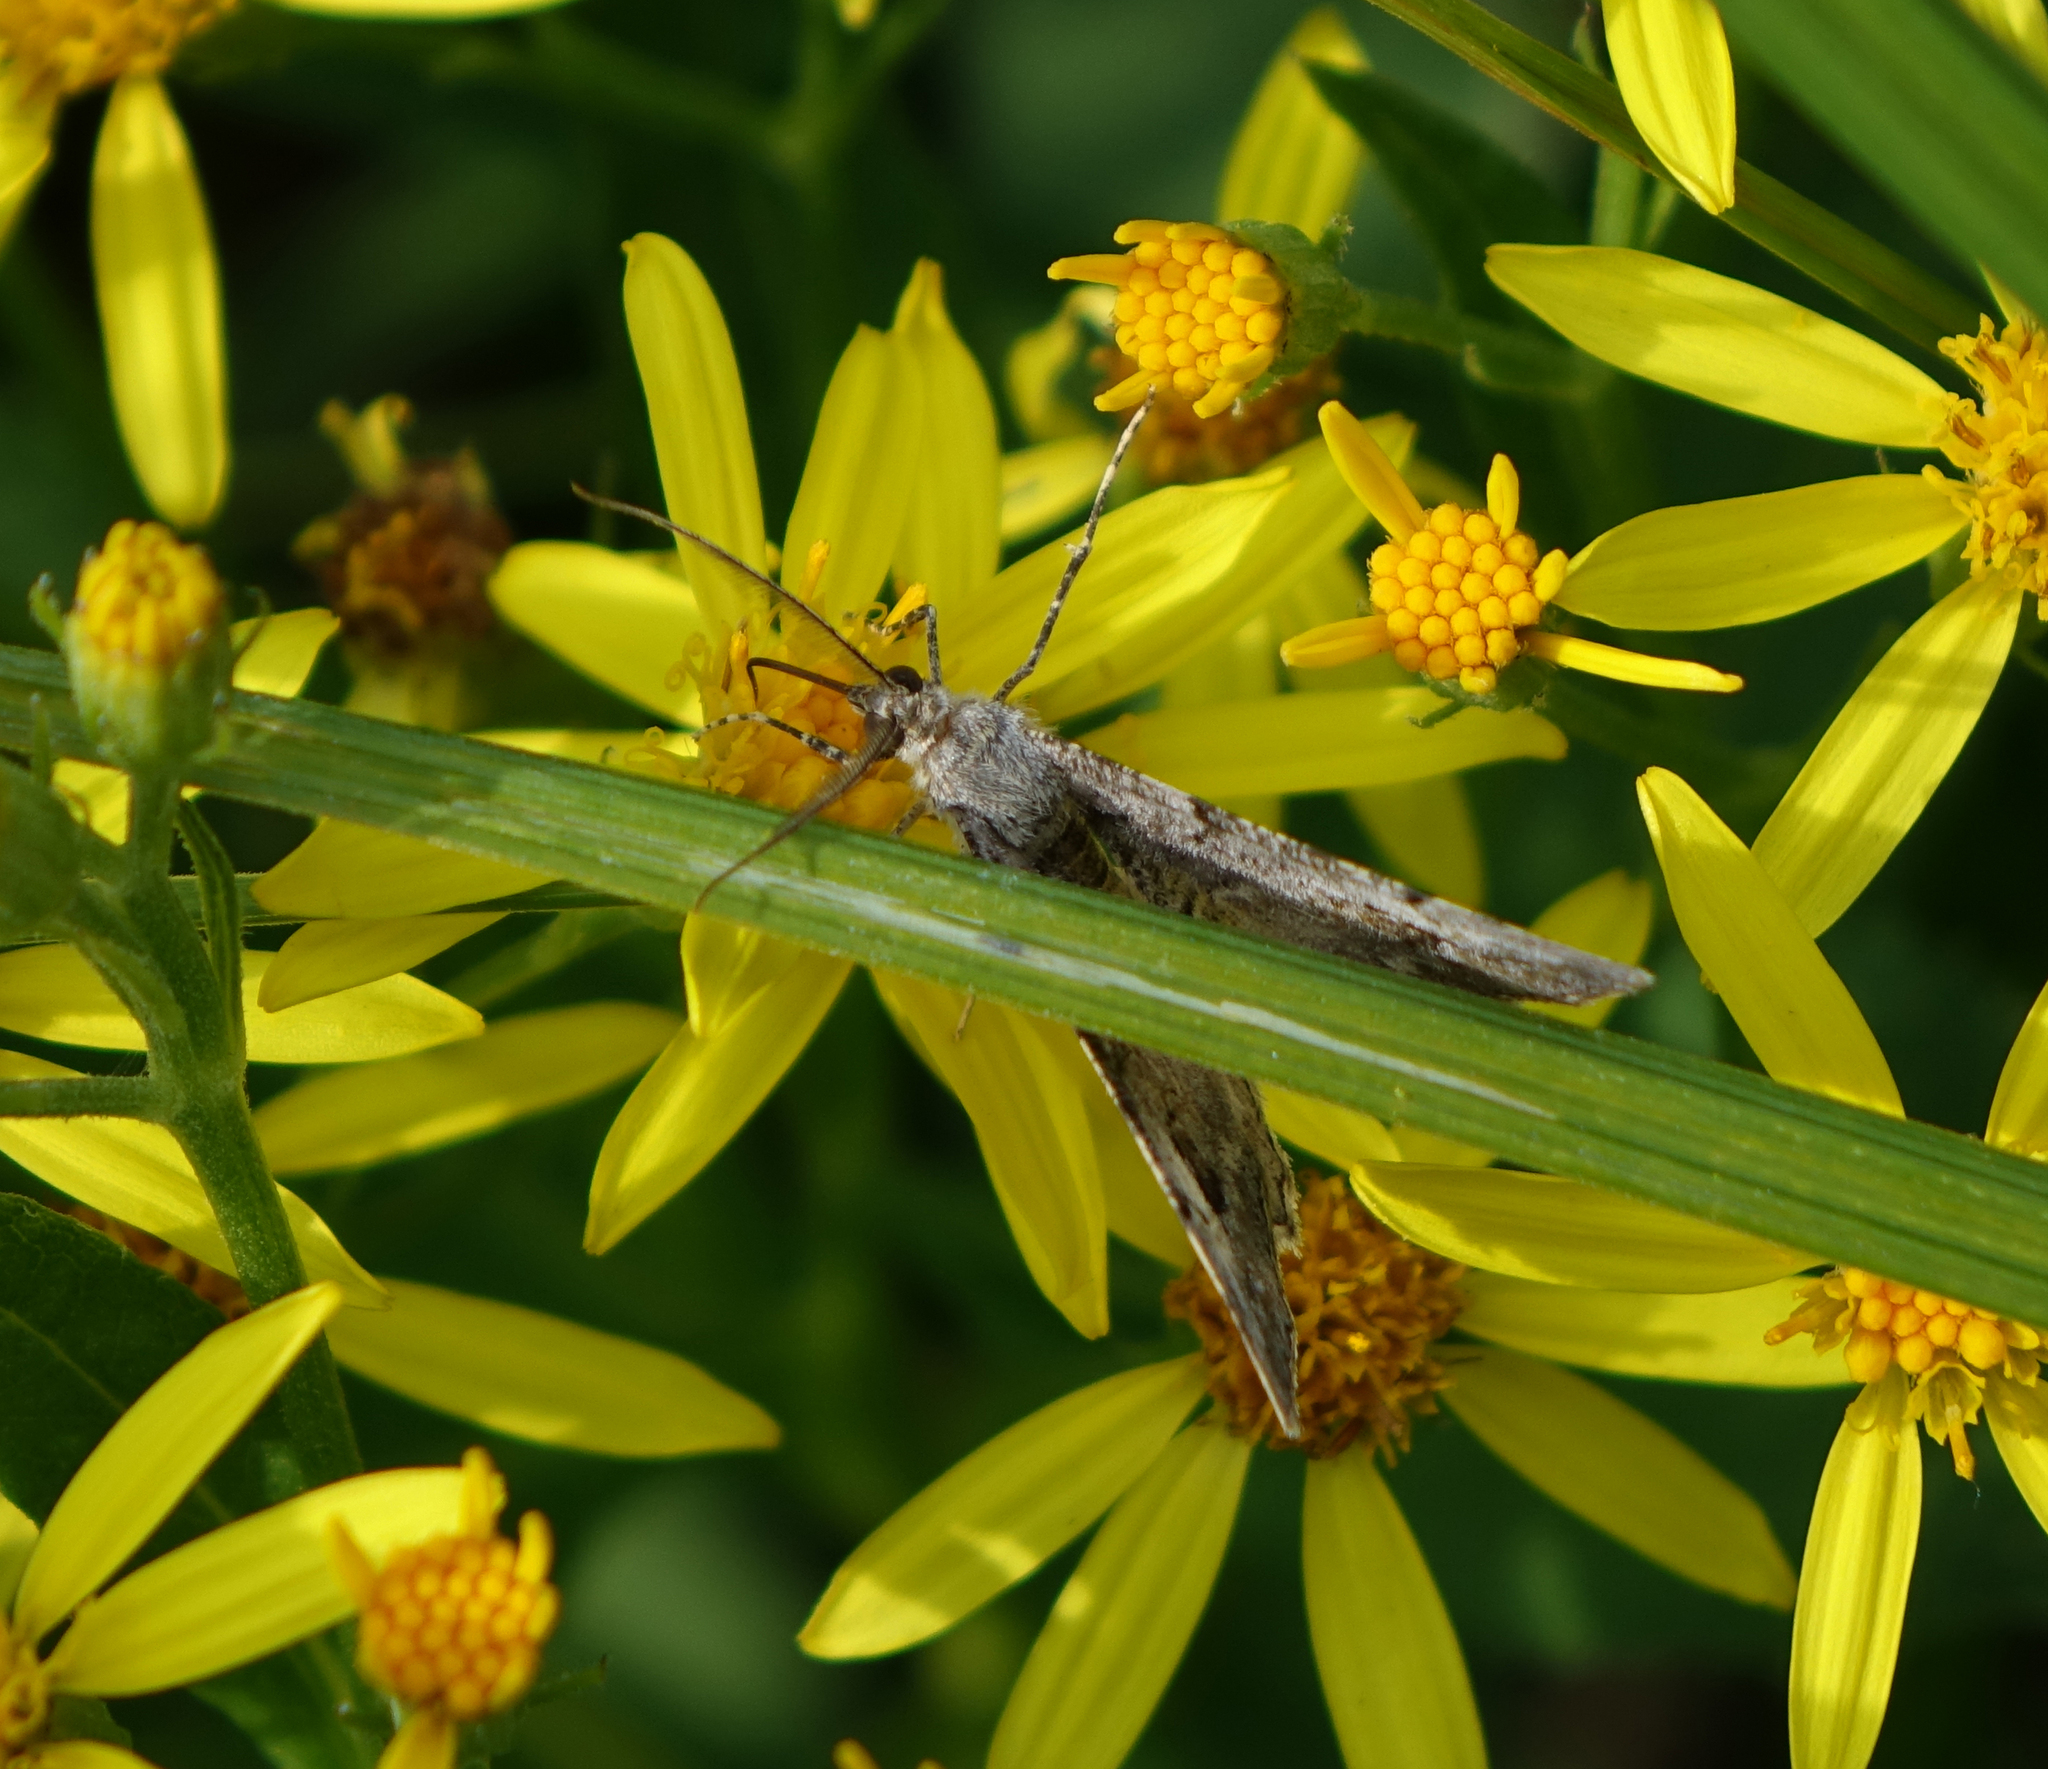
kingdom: Animalia
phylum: Arthropoda
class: Insecta
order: Lepidoptera
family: Geometridae
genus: Alcis
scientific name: Alcis deversata
